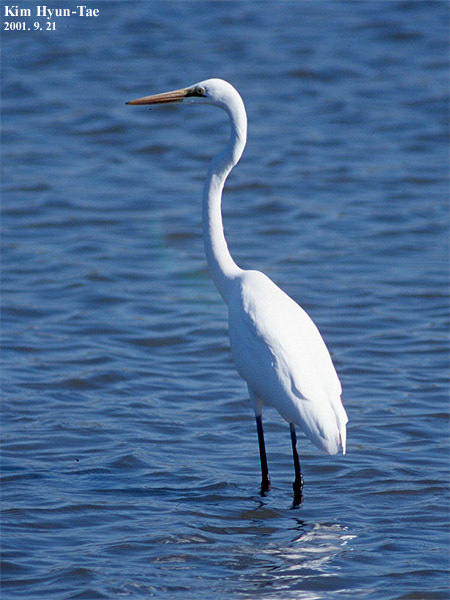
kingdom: Animalia
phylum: Chordata
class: Aves
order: Pelecaniformes
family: Ardeidae
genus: Ardea
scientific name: Ardea alba
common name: Great egret
